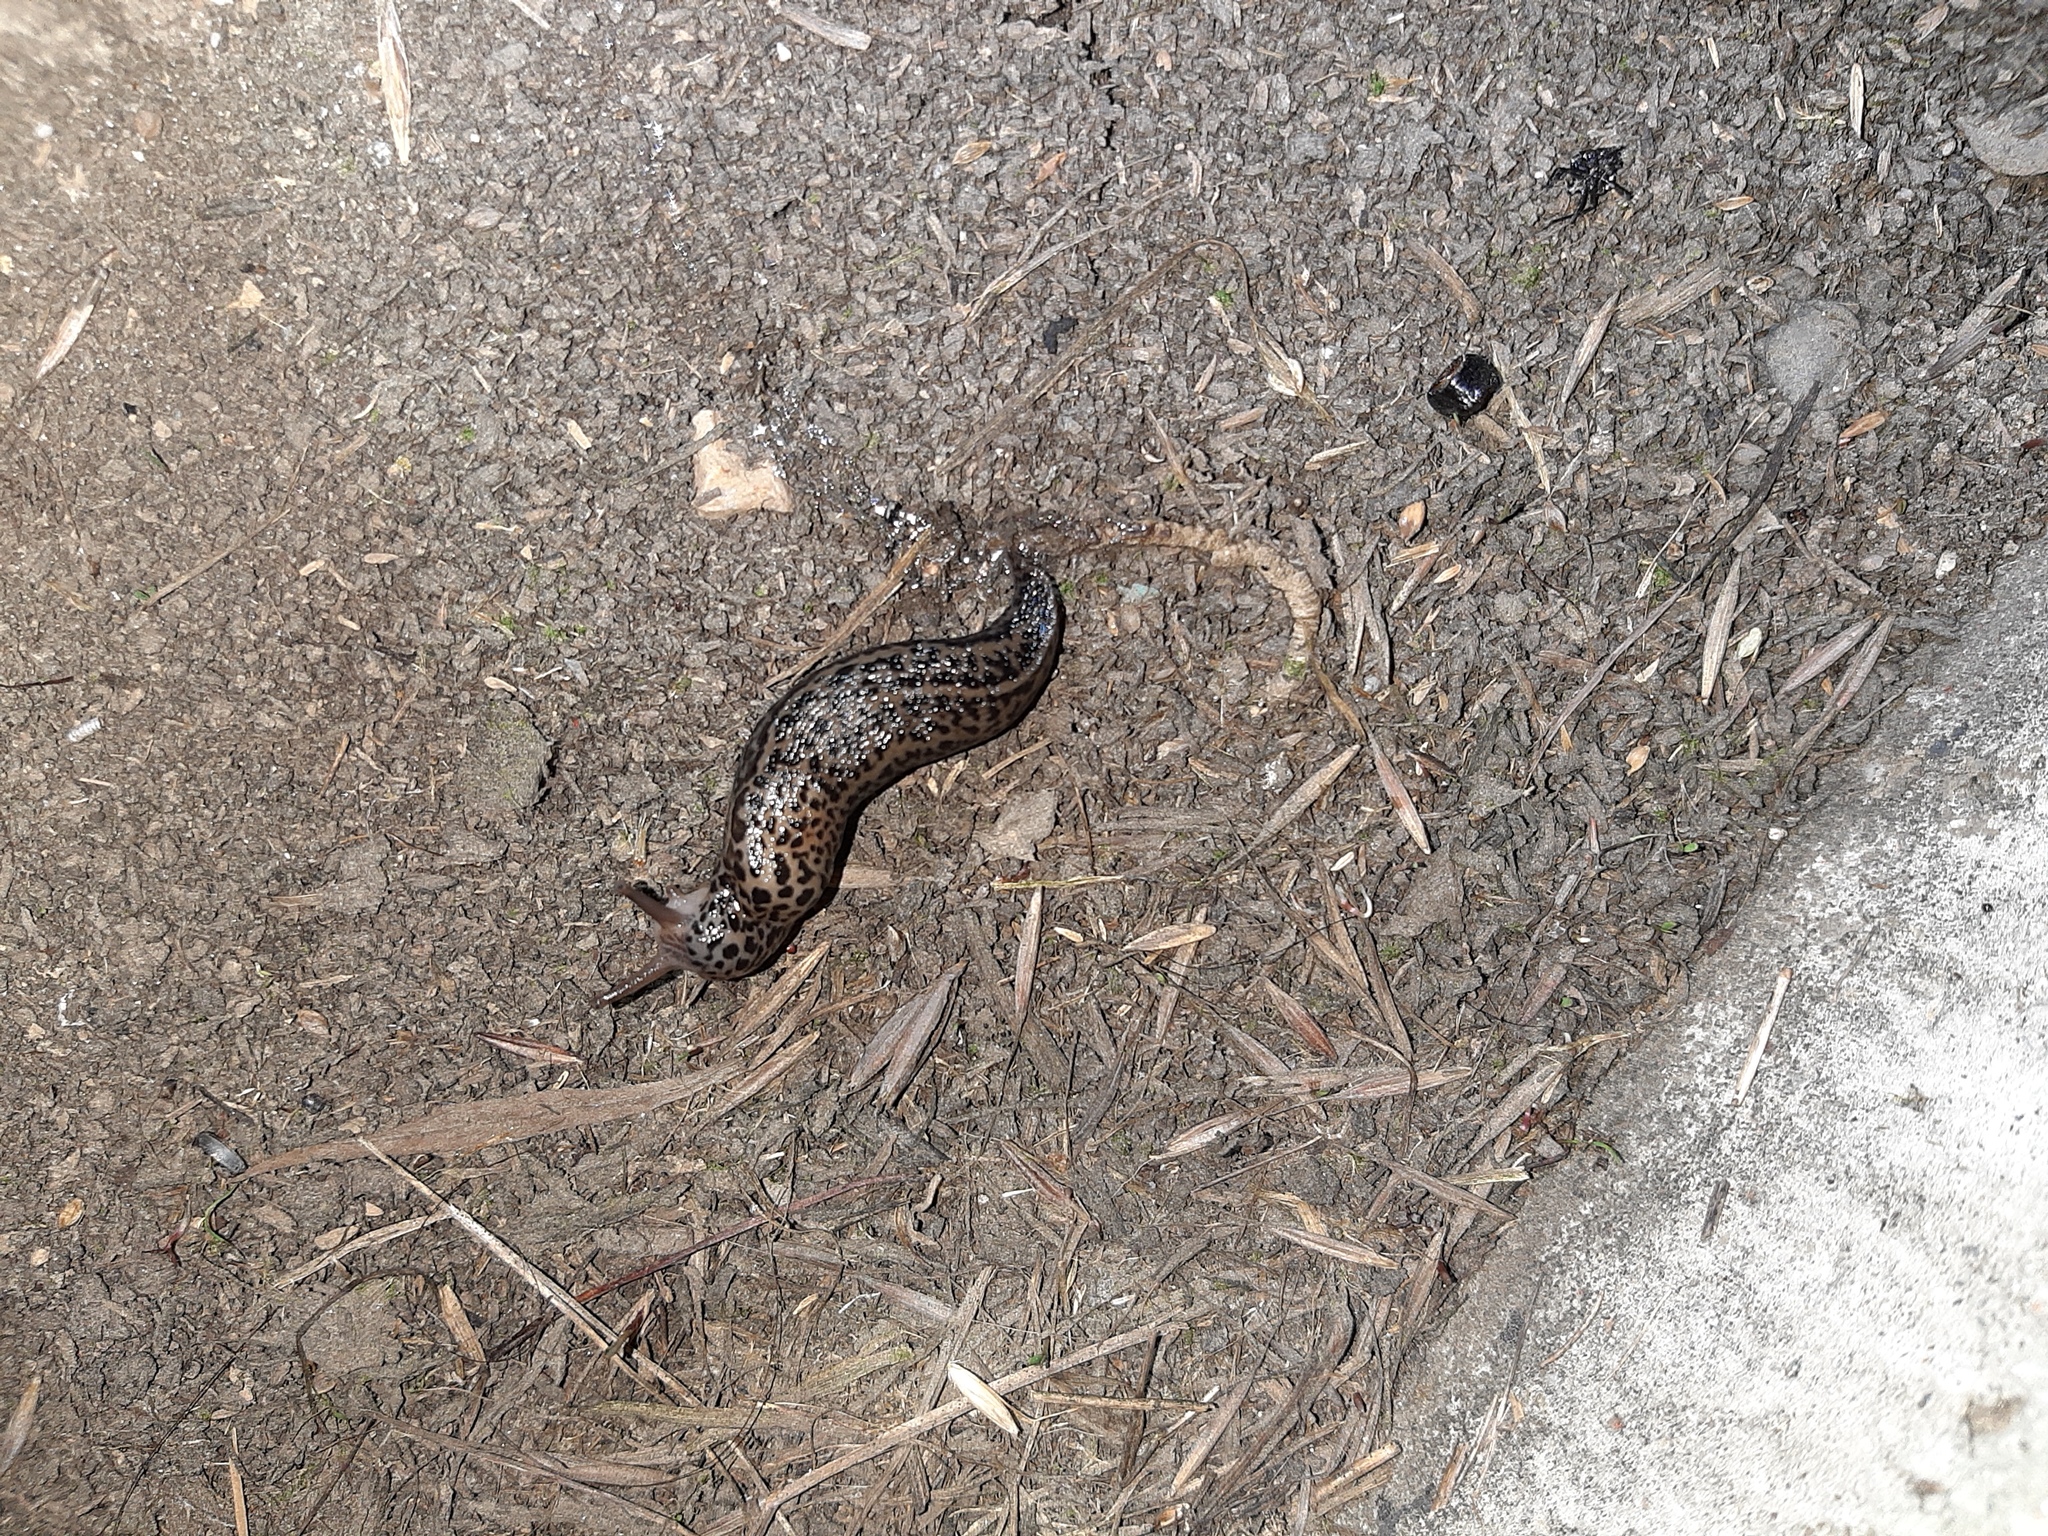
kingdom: Animalia
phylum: Mollusca
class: Gastropoda
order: Stylommatophora
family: Limacidae
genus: Limax
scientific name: Limax maximus
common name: Great grey slug
